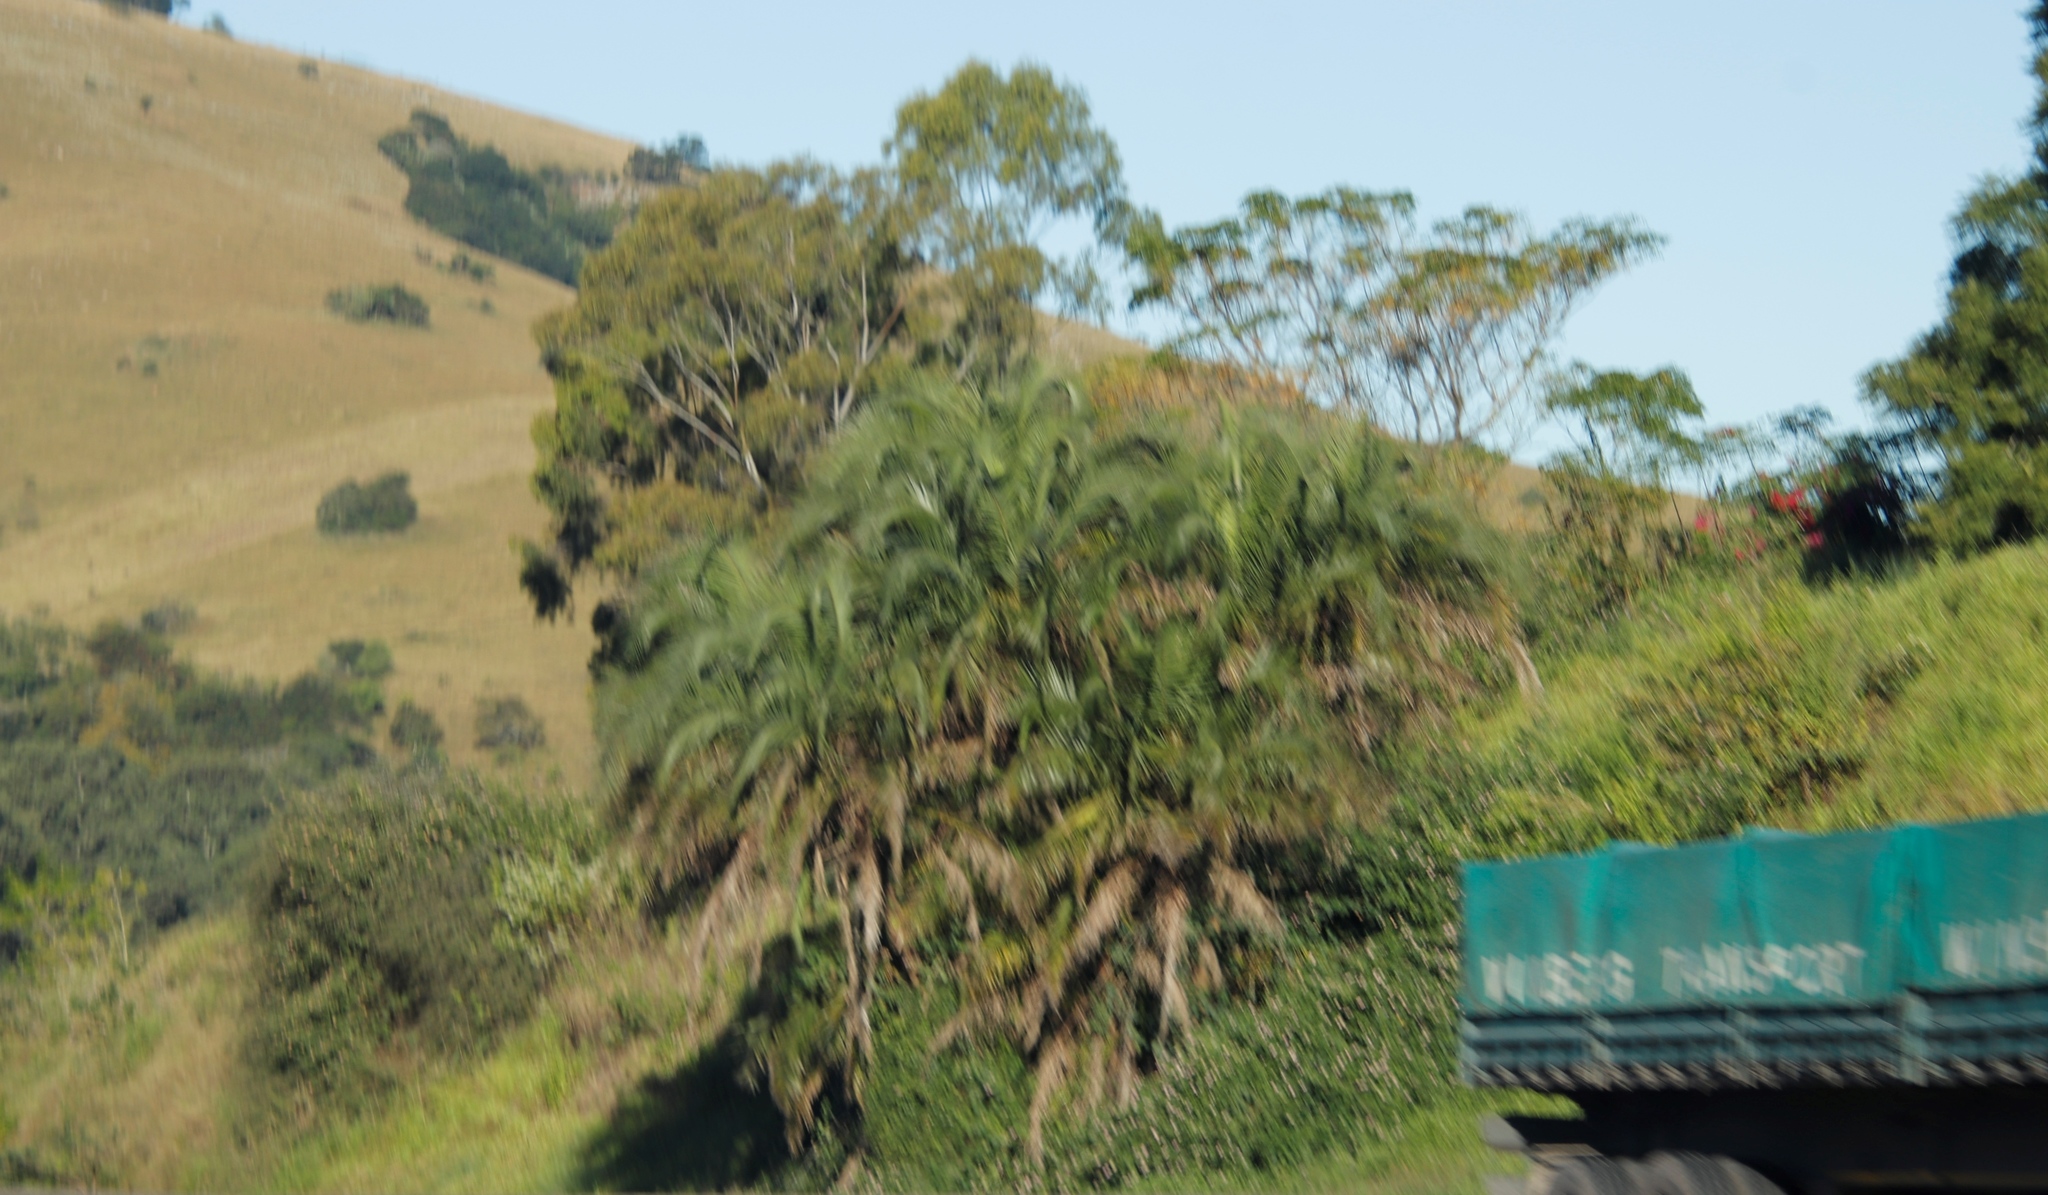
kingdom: Plantae
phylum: Tracheophyta
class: Liliopsida
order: Arecales
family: Arecaceae
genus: Phoenix
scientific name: Phoenix reclinata
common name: Senegal date palm
